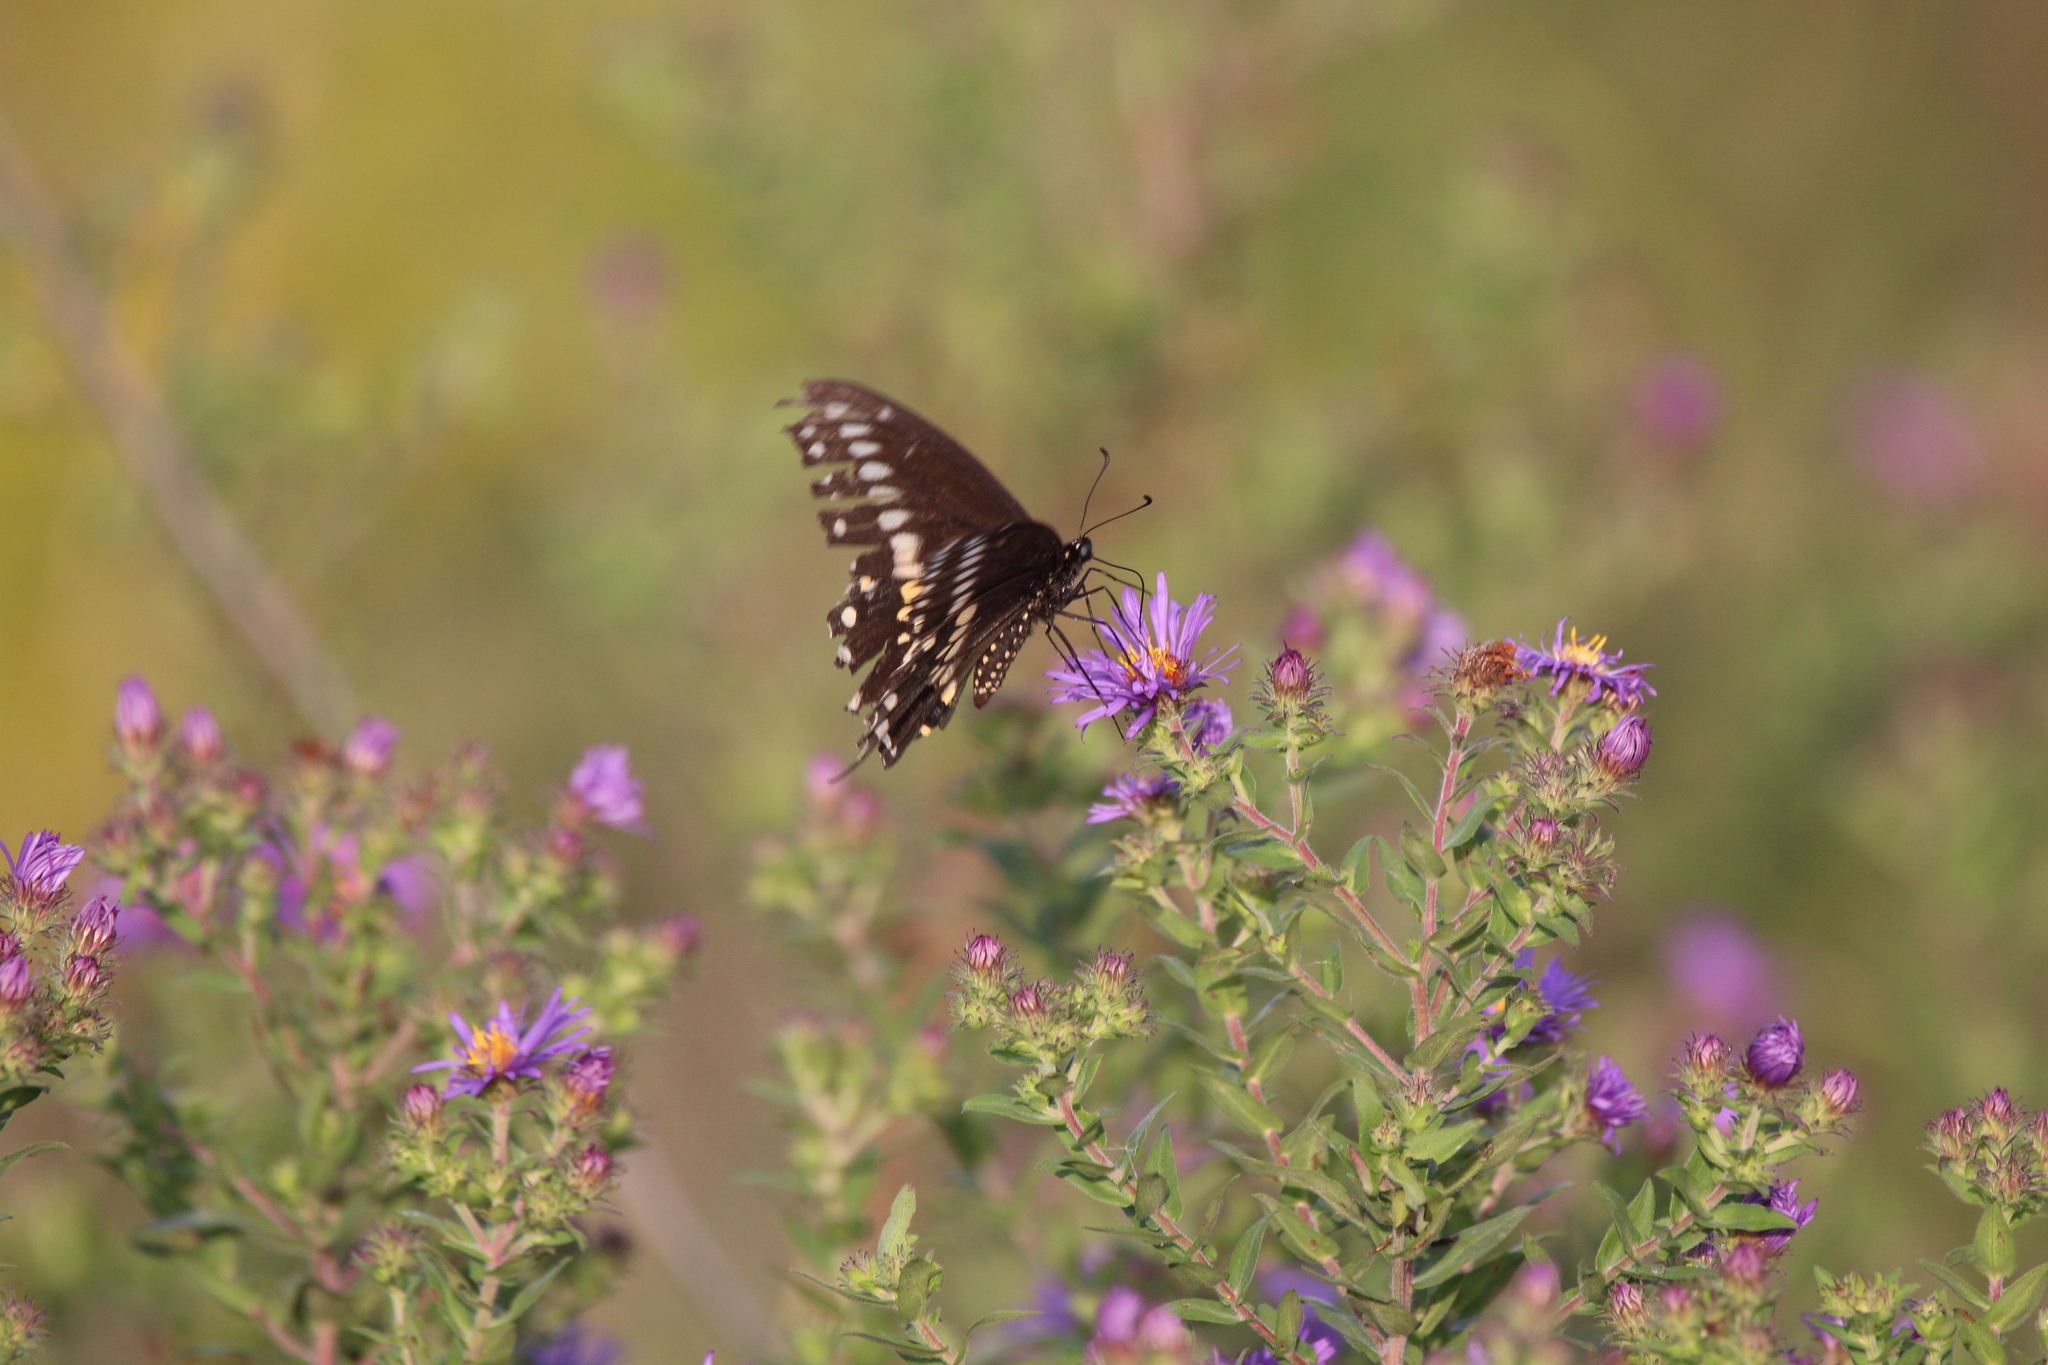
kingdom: Animalia
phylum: Arthropoda
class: Insecta
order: Lepidoptera
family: Papilionidae
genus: Papilio
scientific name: Papilio polyxenes
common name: Black swallowtail
